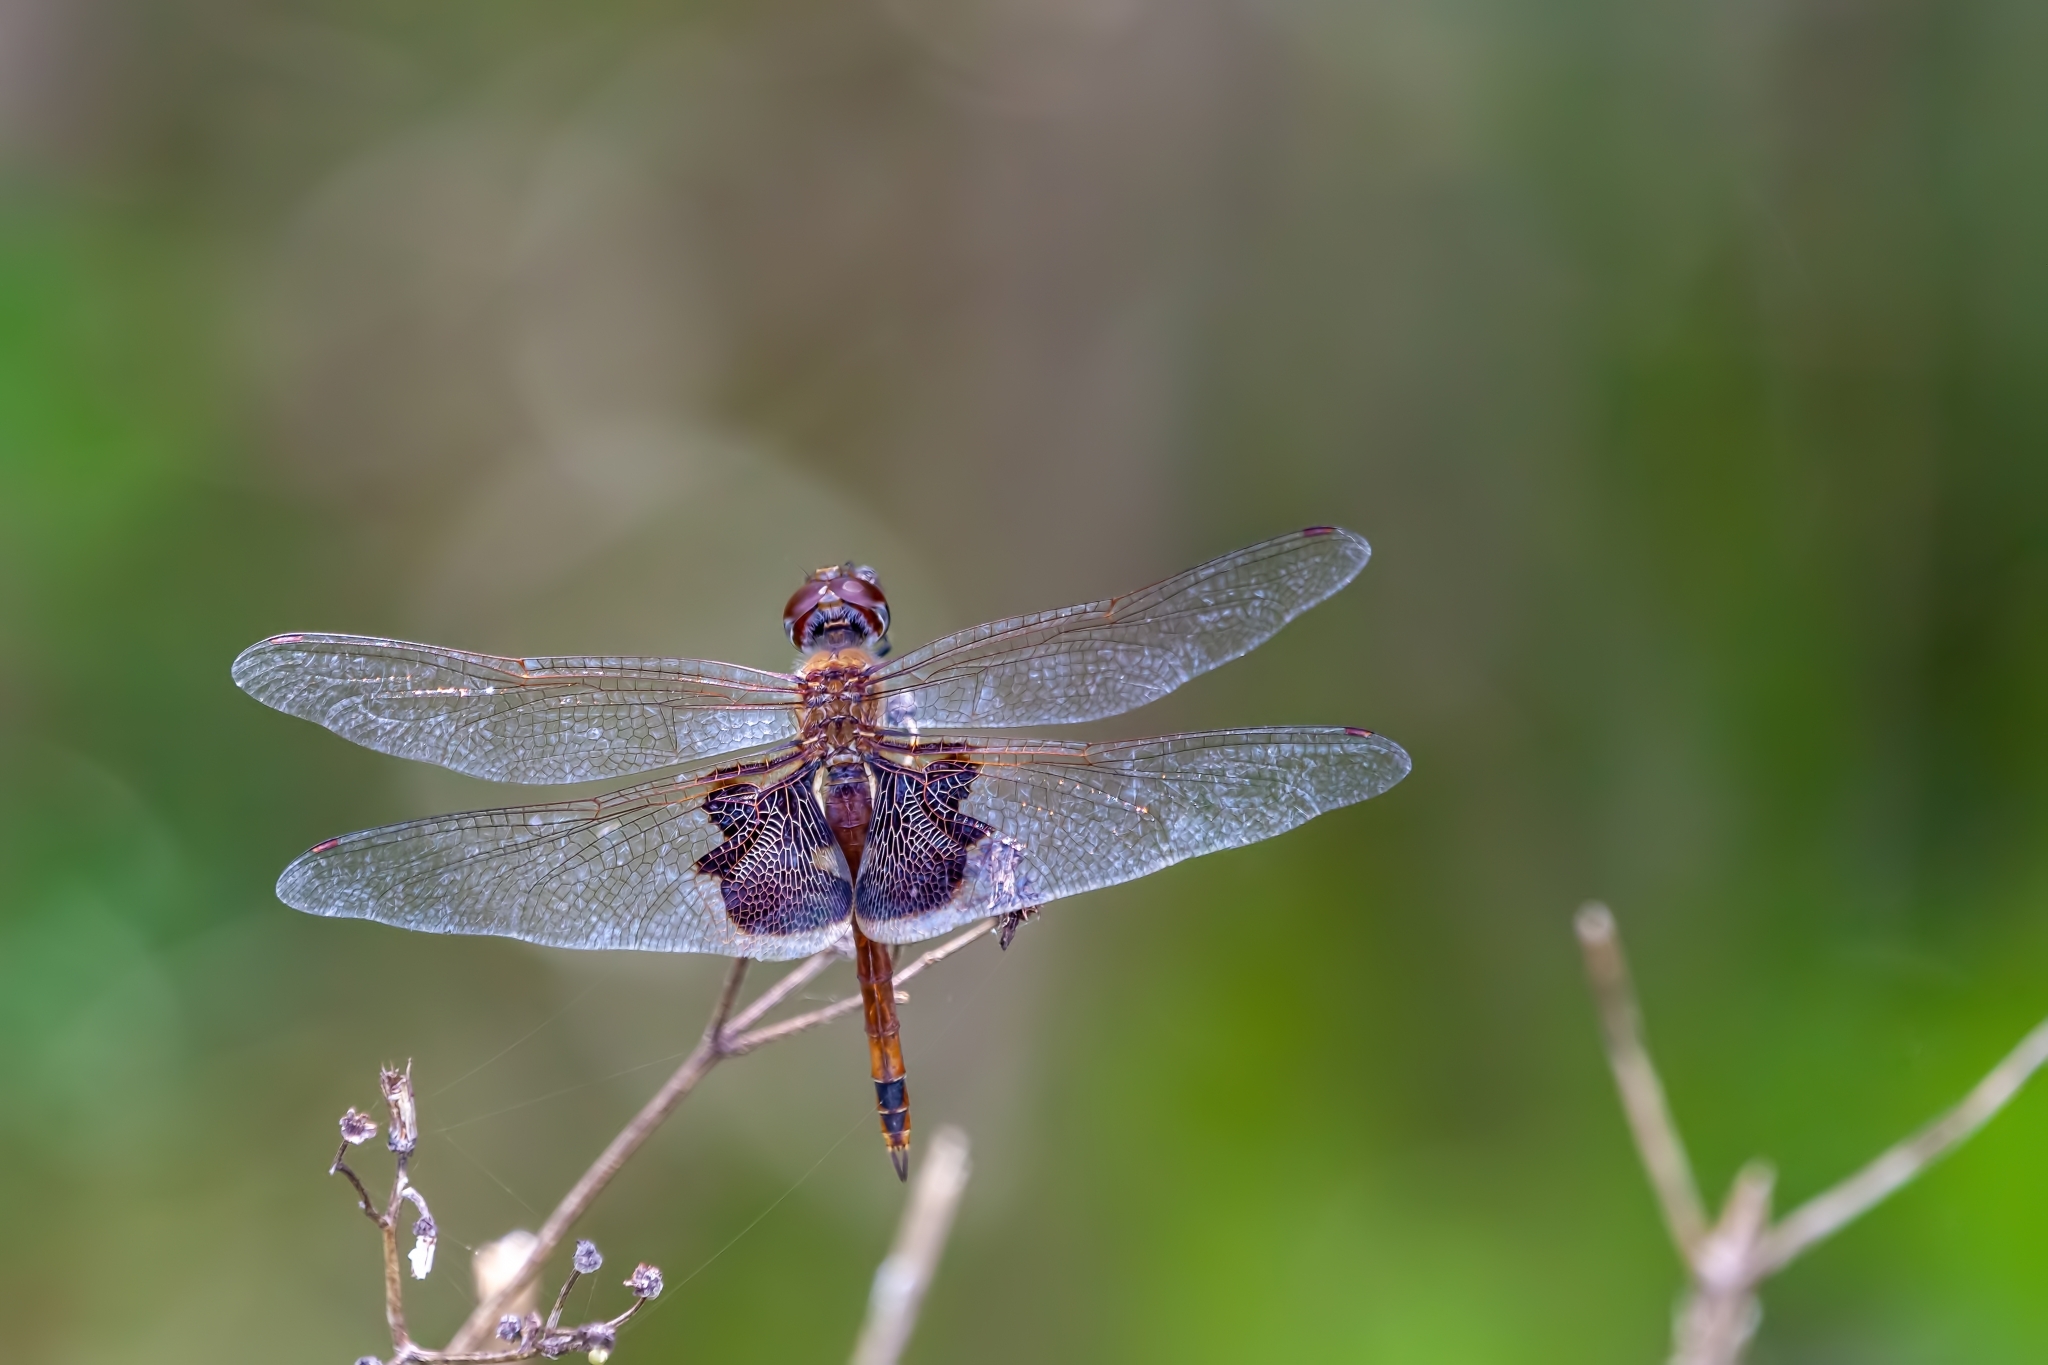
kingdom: Animalia
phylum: Arthropoda
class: Insecta
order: Odonata
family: Libellulidae
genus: Tramea
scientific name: Tramea onusta
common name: Red saddlebags
